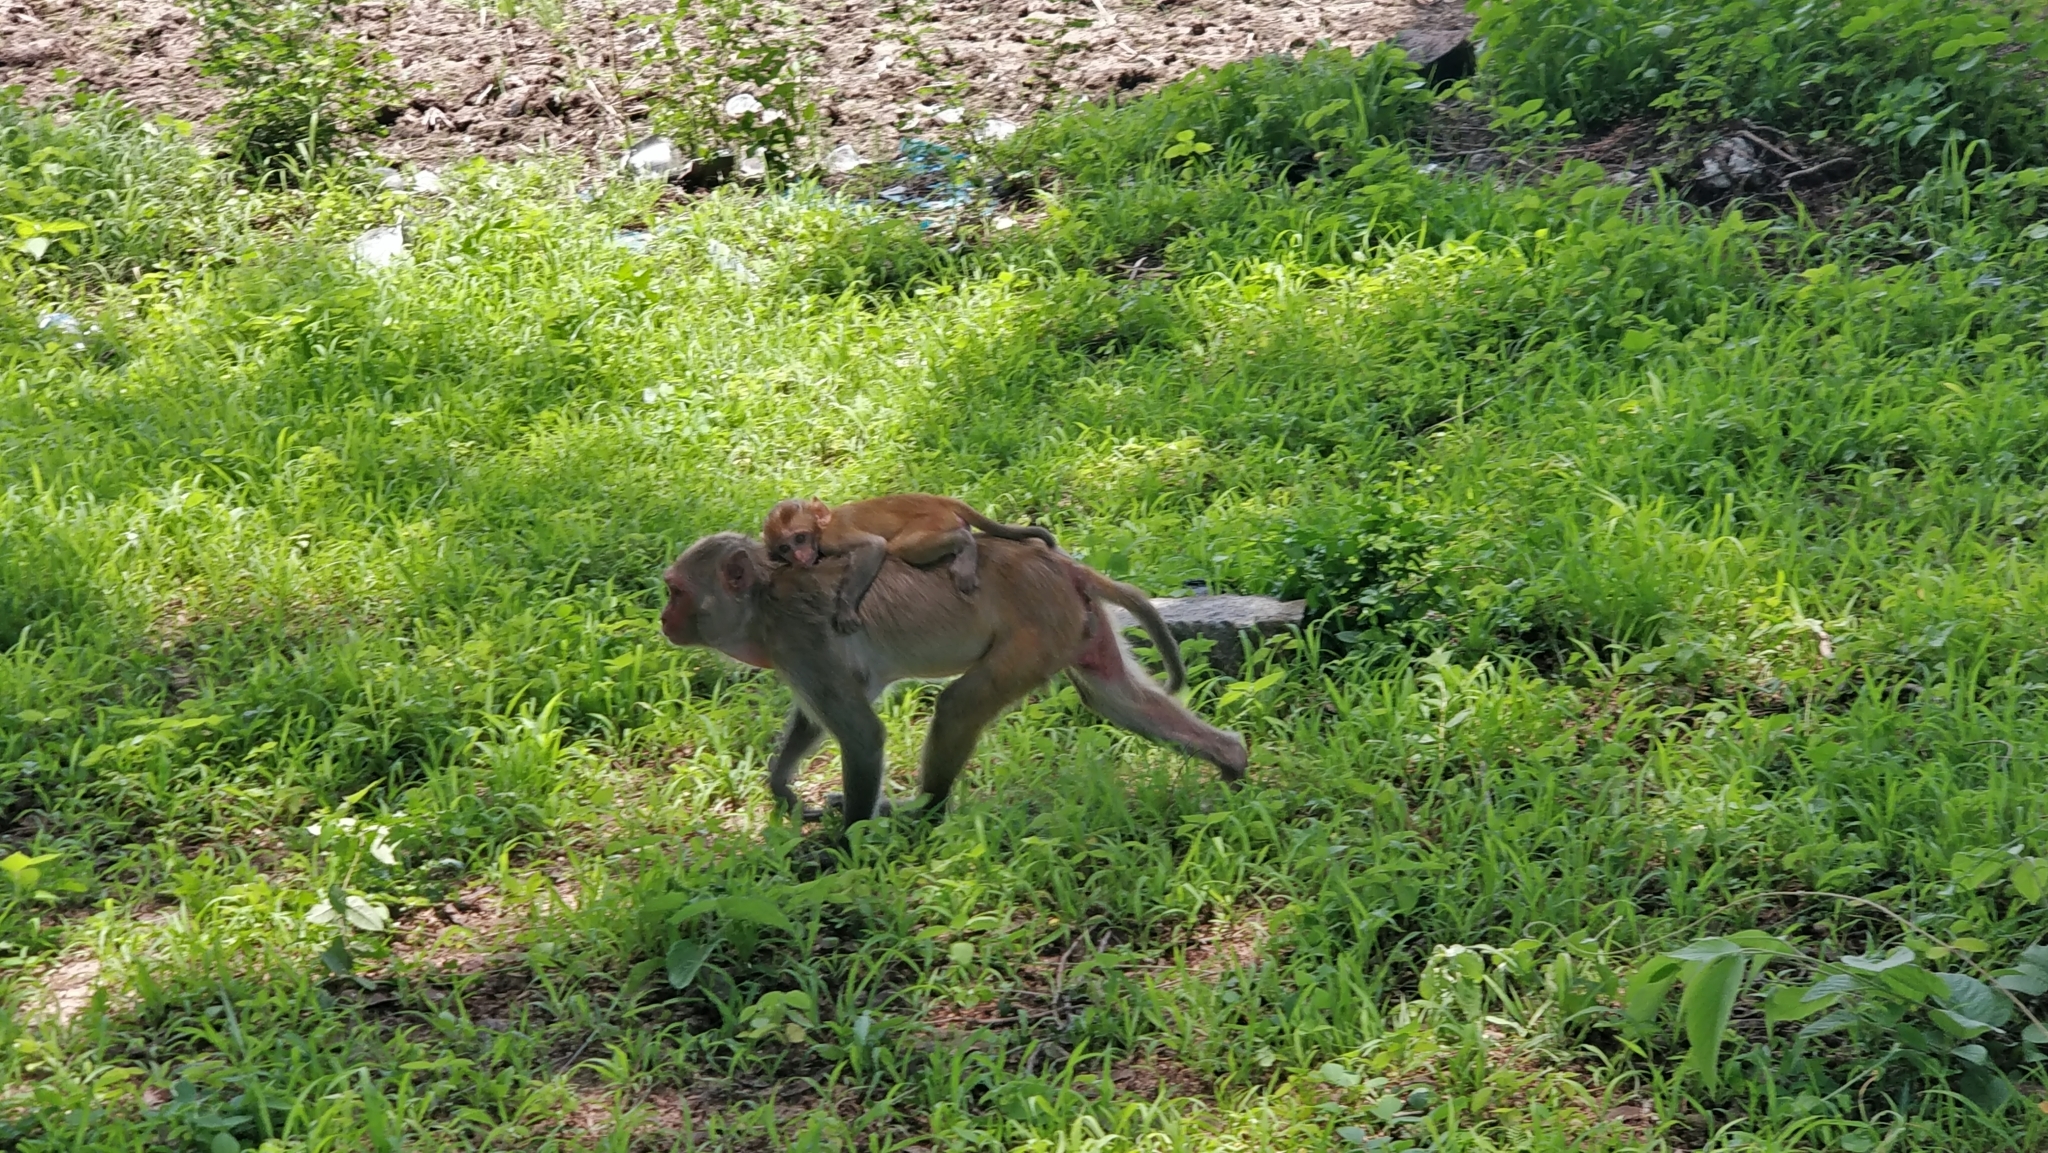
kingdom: Animalia
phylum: Chordata
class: Mammalia
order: Primates
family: Cercopithecidae
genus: Macaca
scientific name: Macaca mulatta
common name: Rhesus monkey
